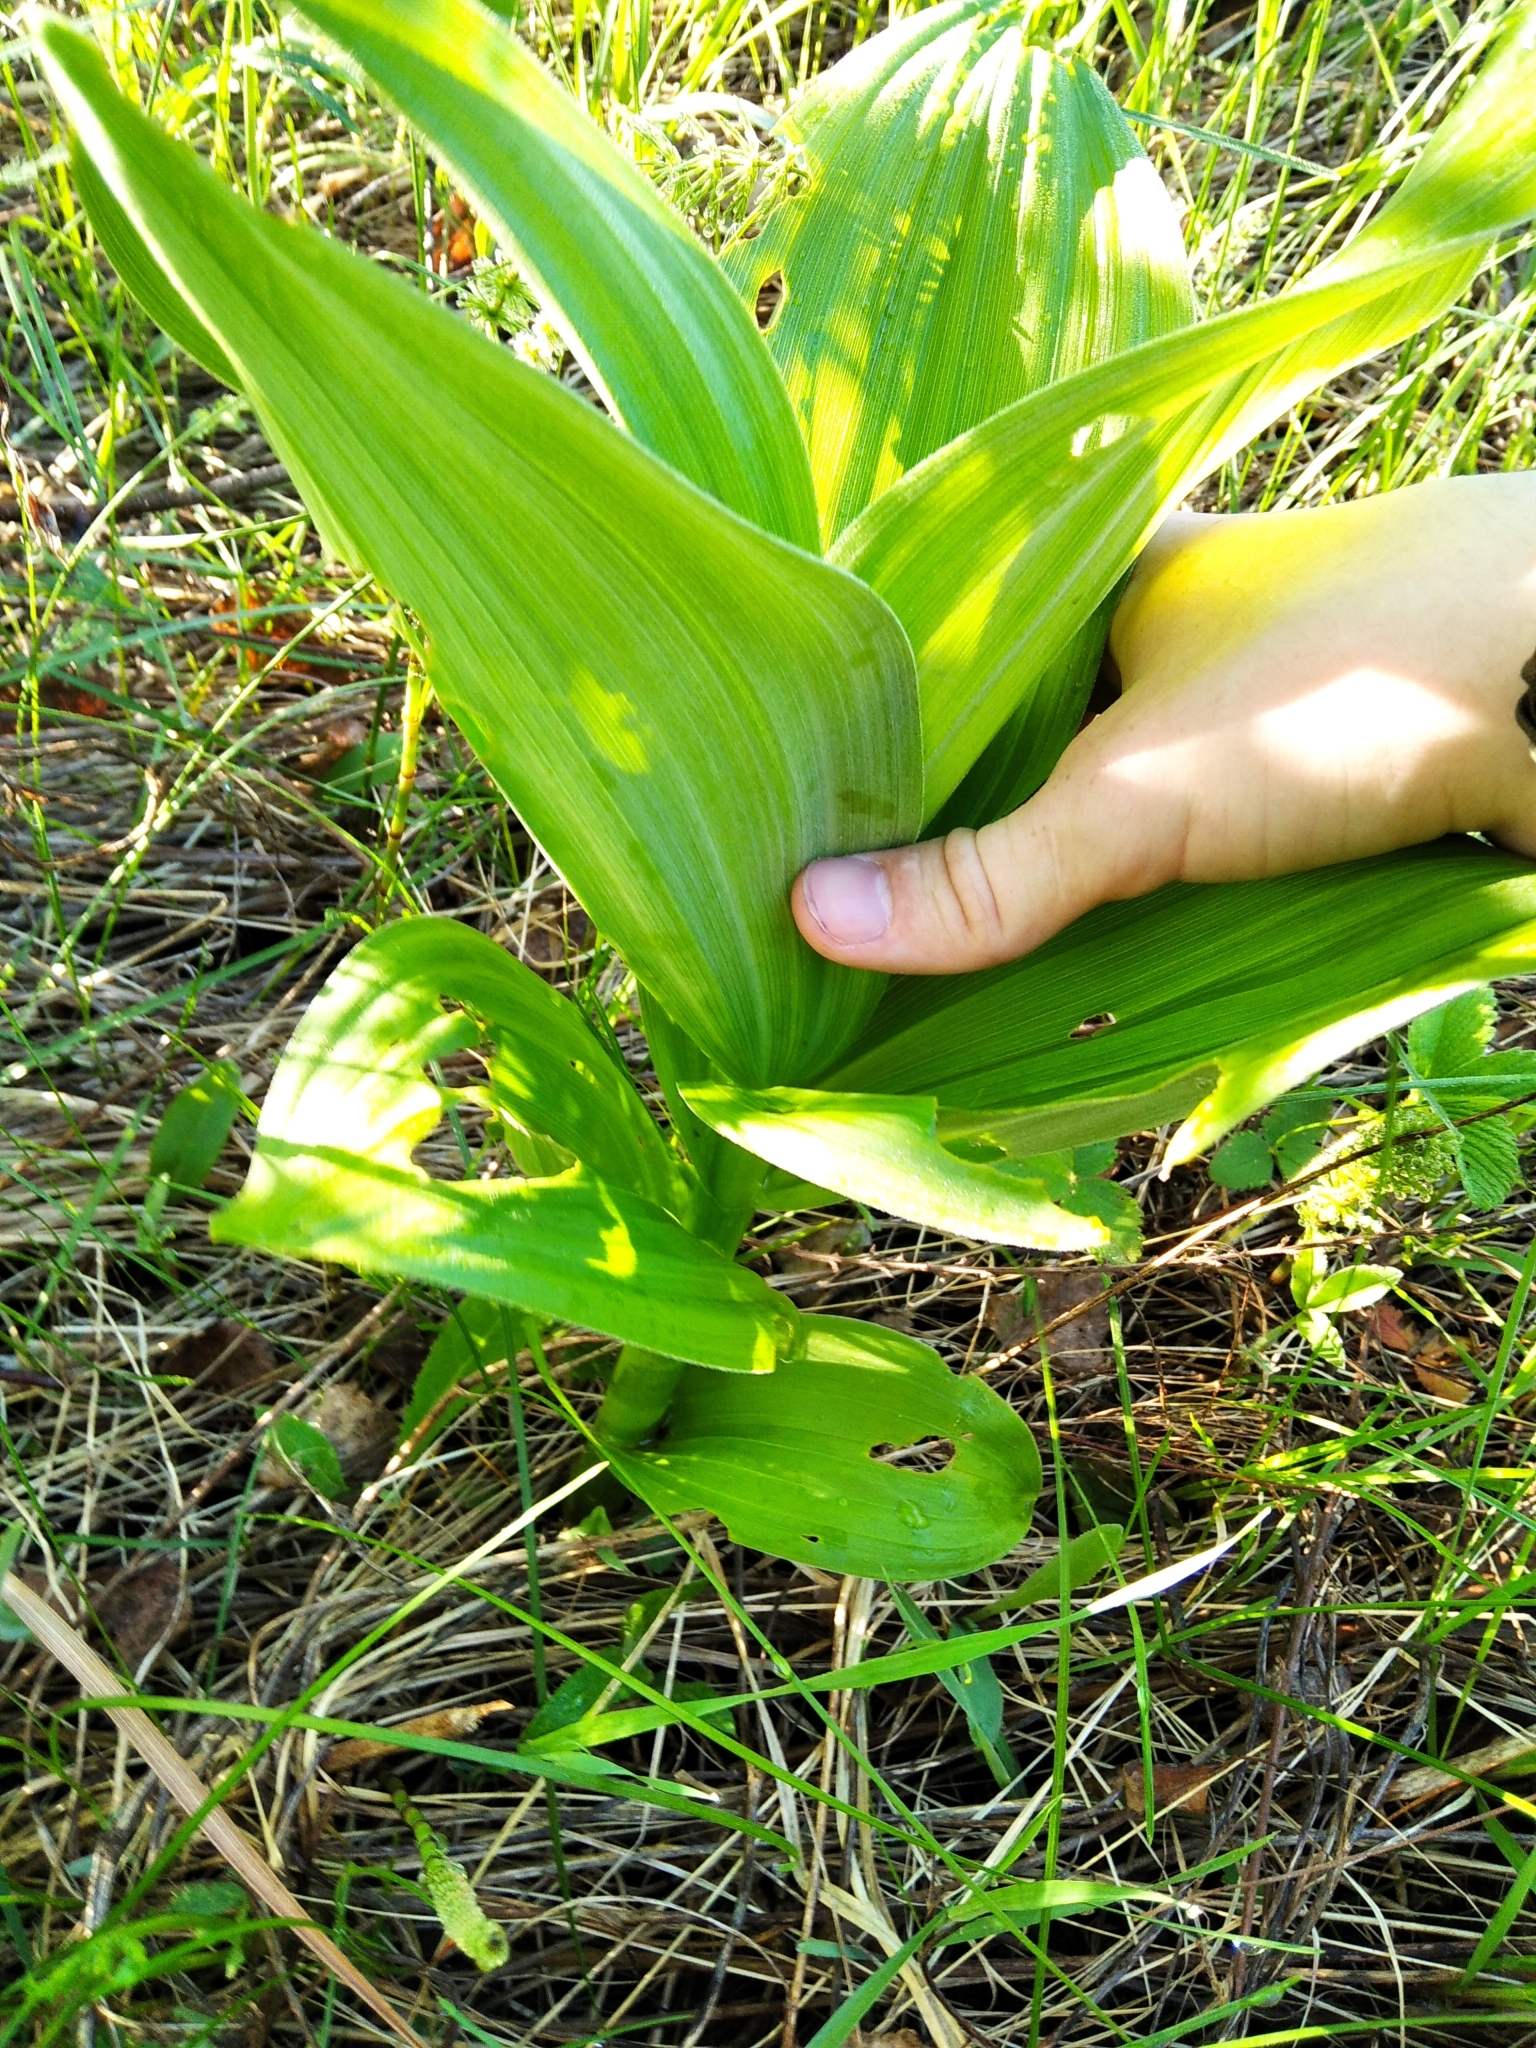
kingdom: Plantae
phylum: Tracheophyta
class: Liliopsida
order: Liliales
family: Melanthiaceae
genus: Veratrum
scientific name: Veratrum lobelianum
